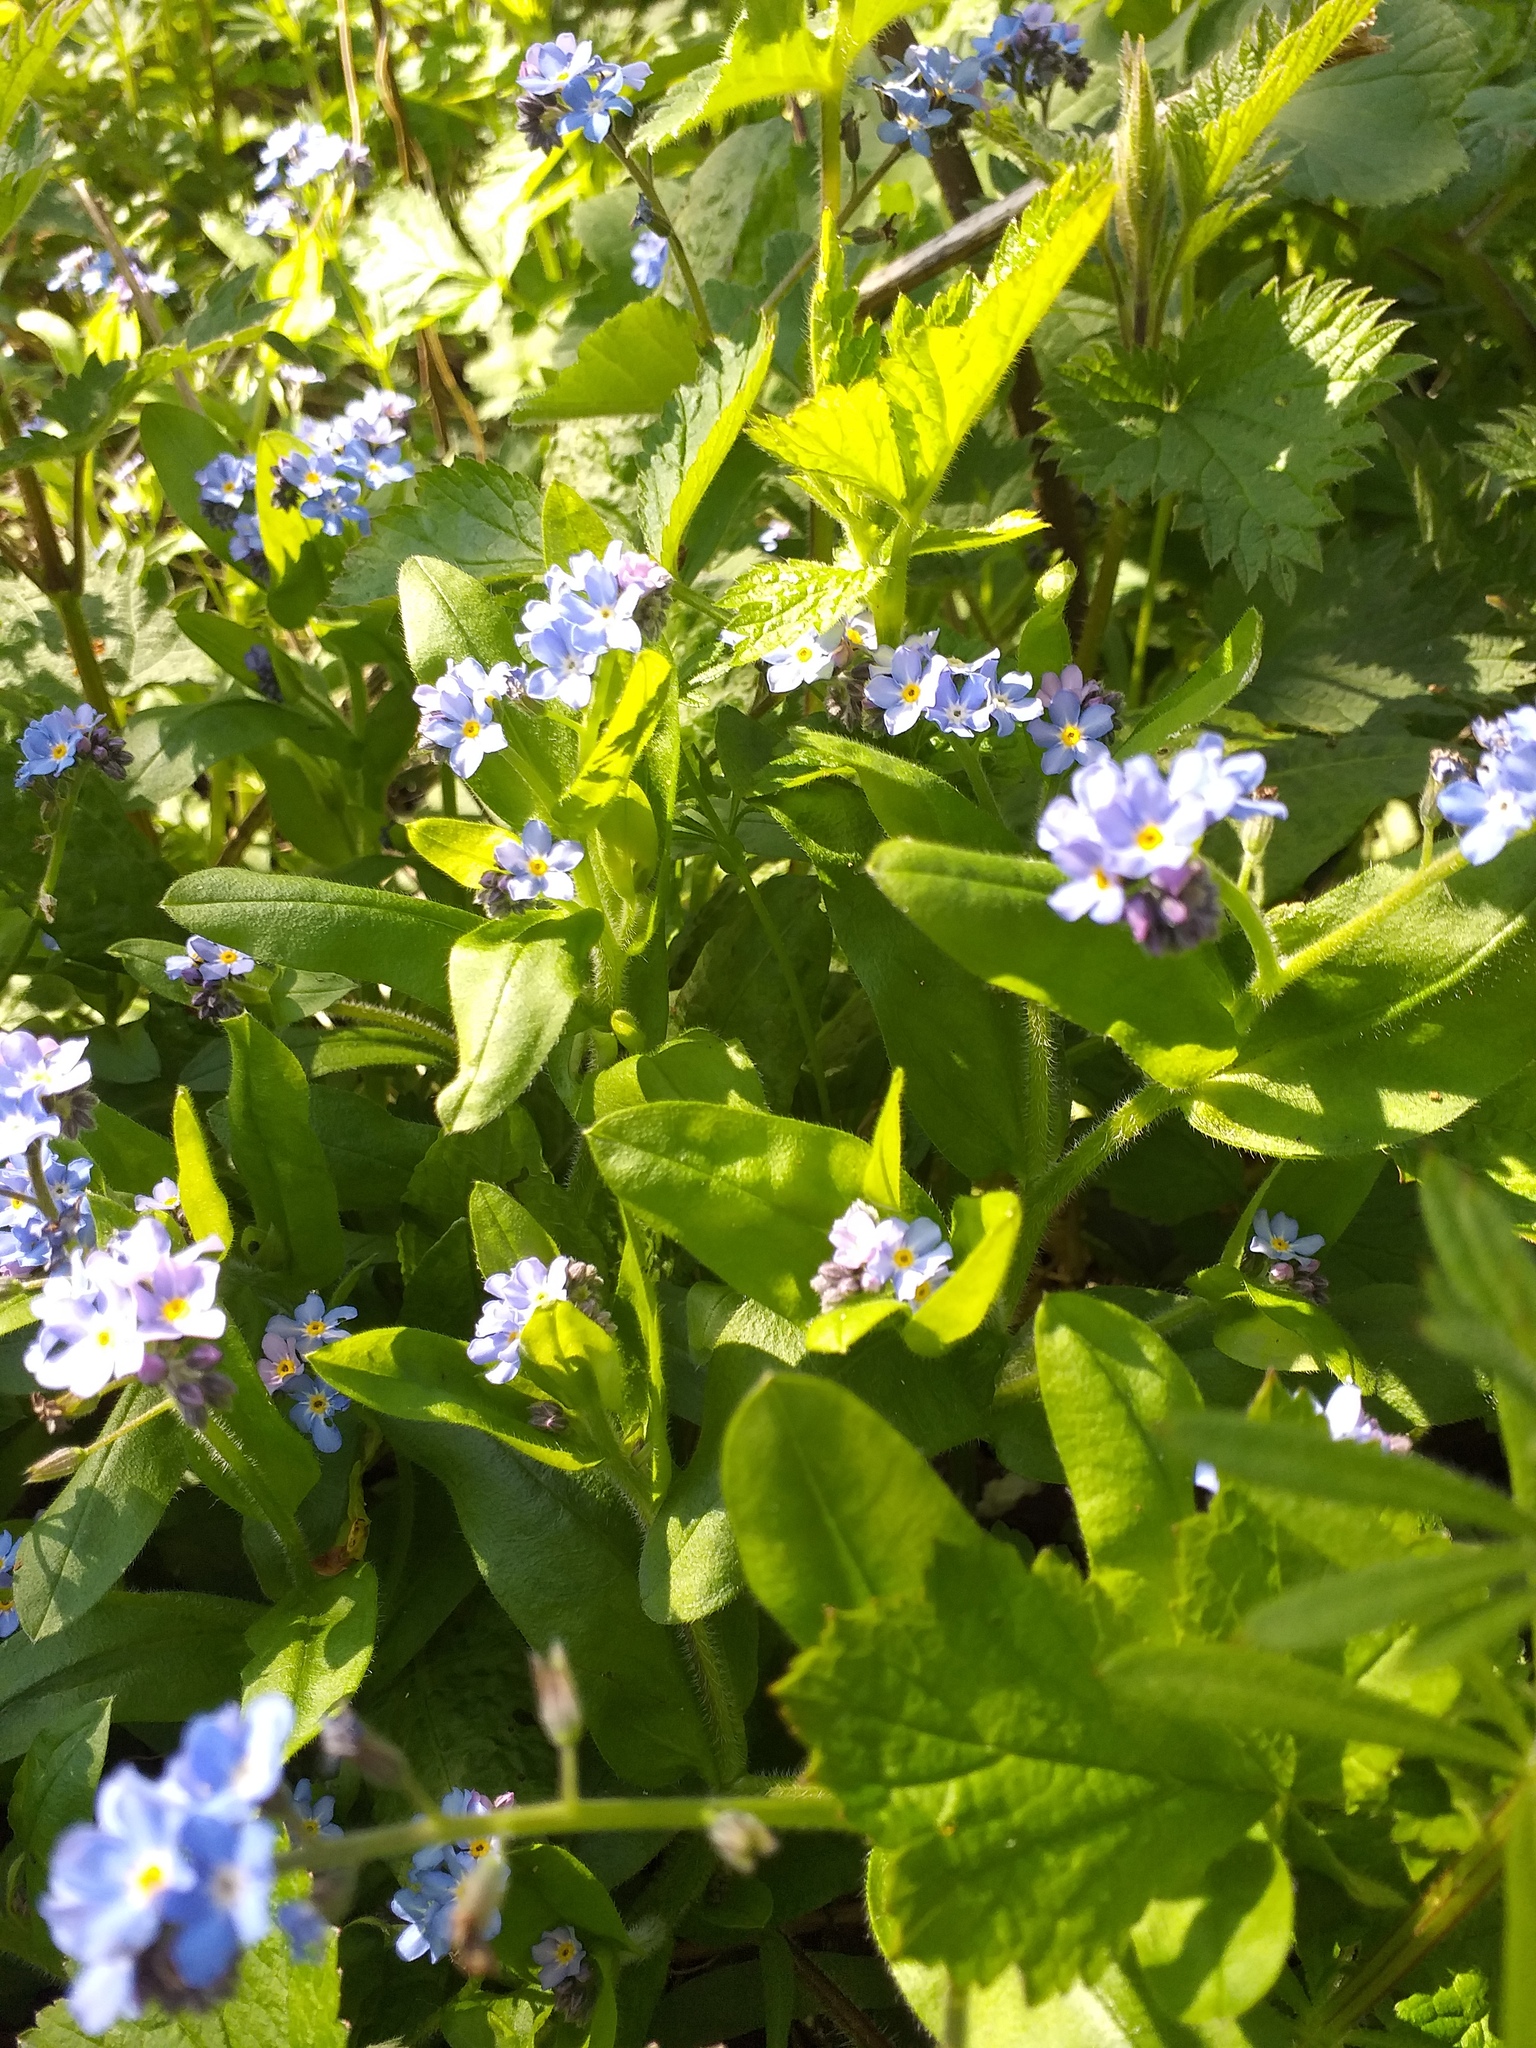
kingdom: Plantae
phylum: Tracheophyta
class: Magnoliopsida
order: Boraginales
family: Boraginaceae
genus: Myosotis
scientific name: Myosotis sylvatica
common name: Wood forget-me-not
